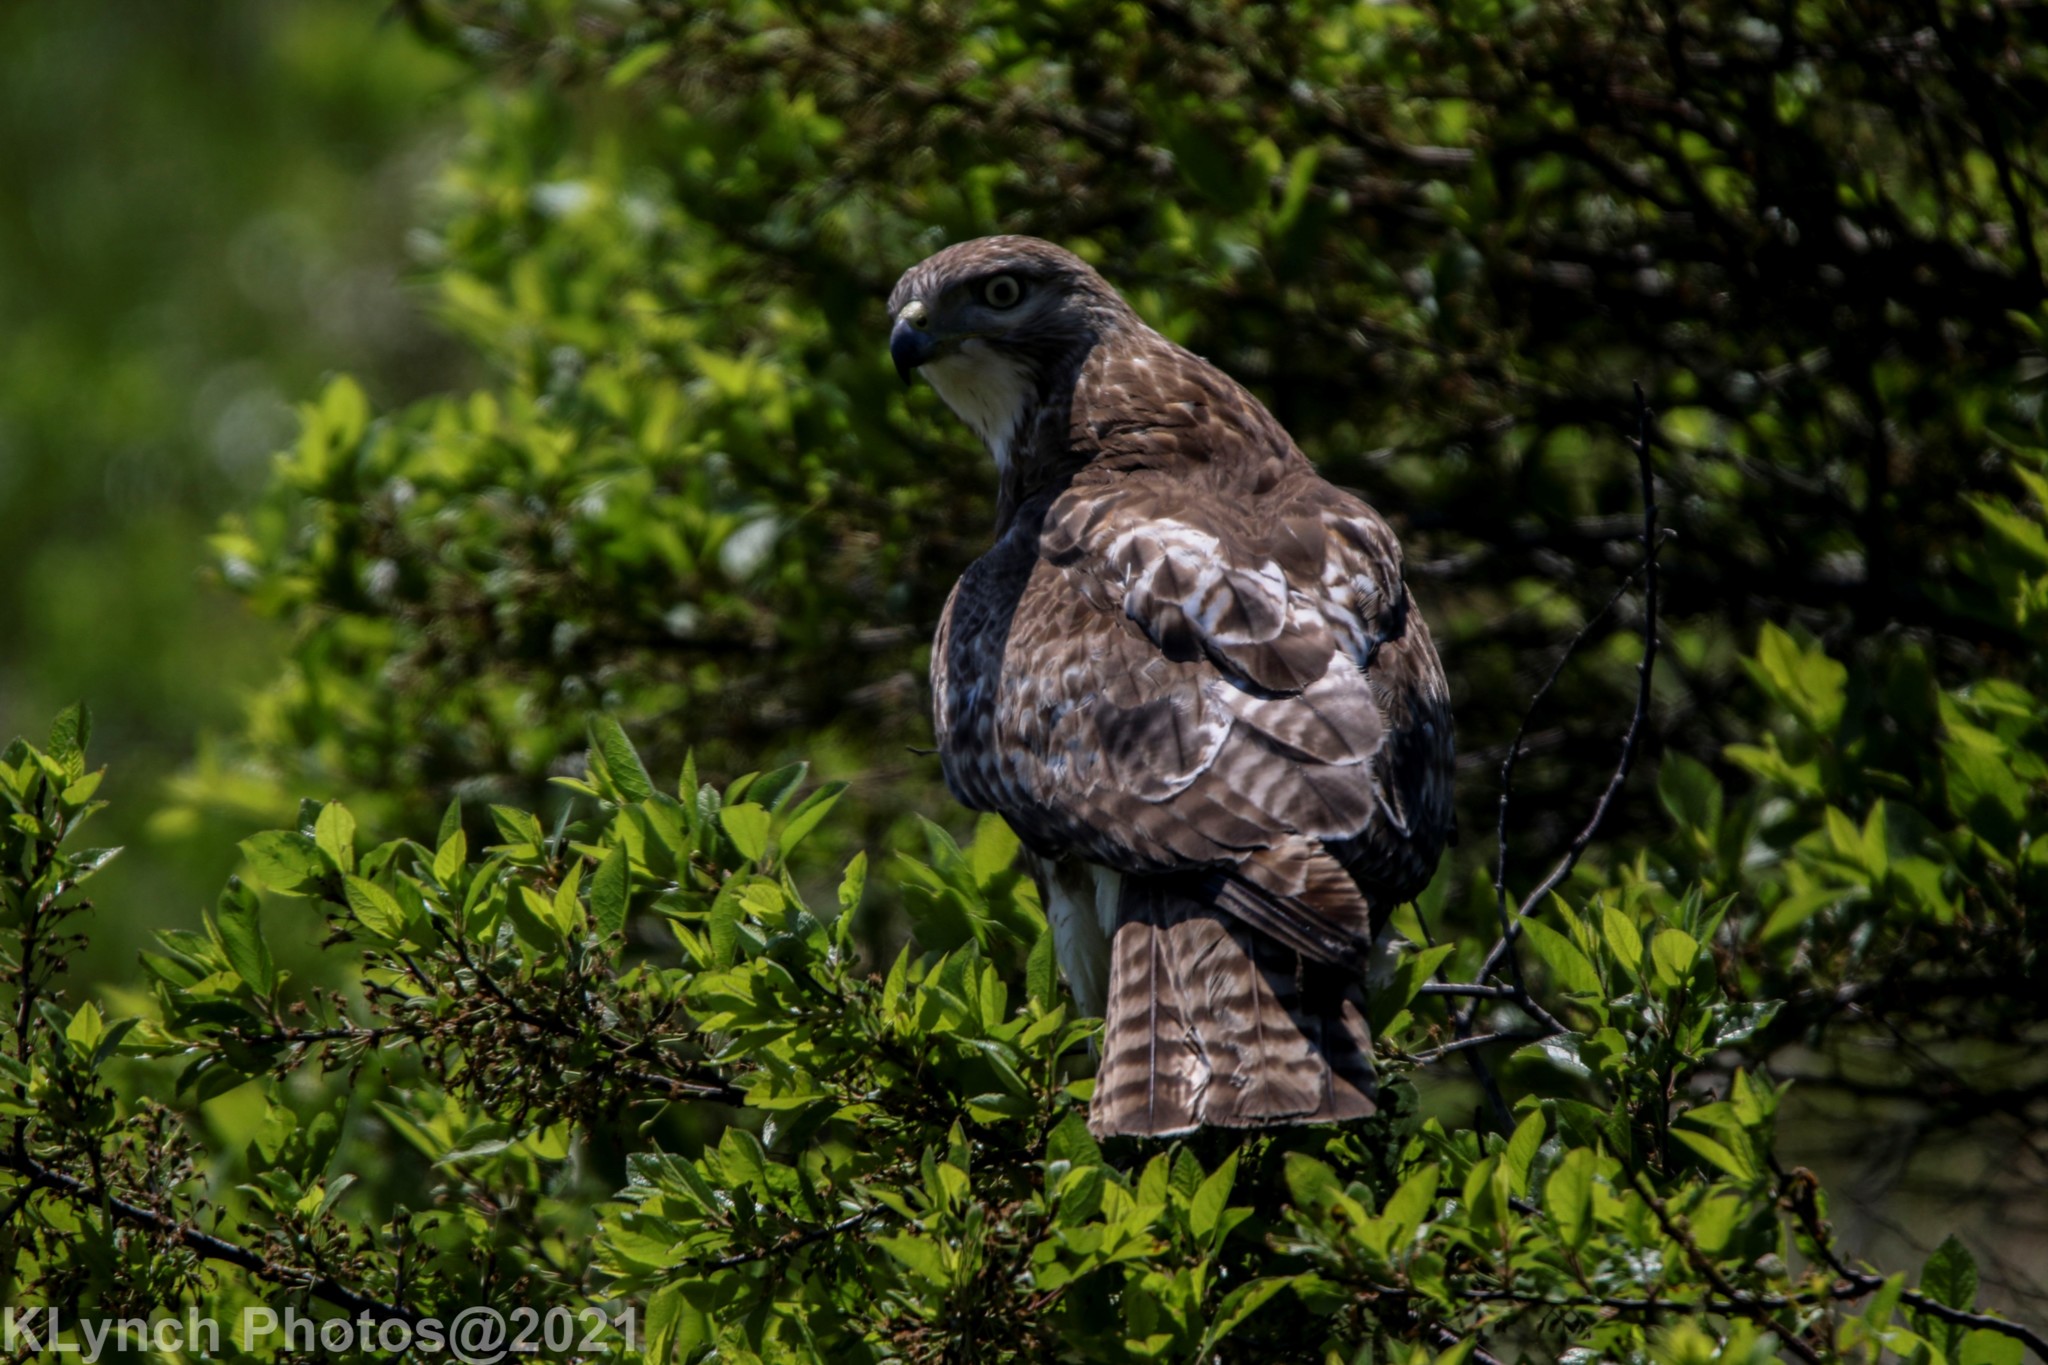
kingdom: Animalia
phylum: Chordata
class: Aves
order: Accipitriformes
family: Accipitridae
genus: Buteo
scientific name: Buteo jamaicensis
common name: Red-tailed hawk
